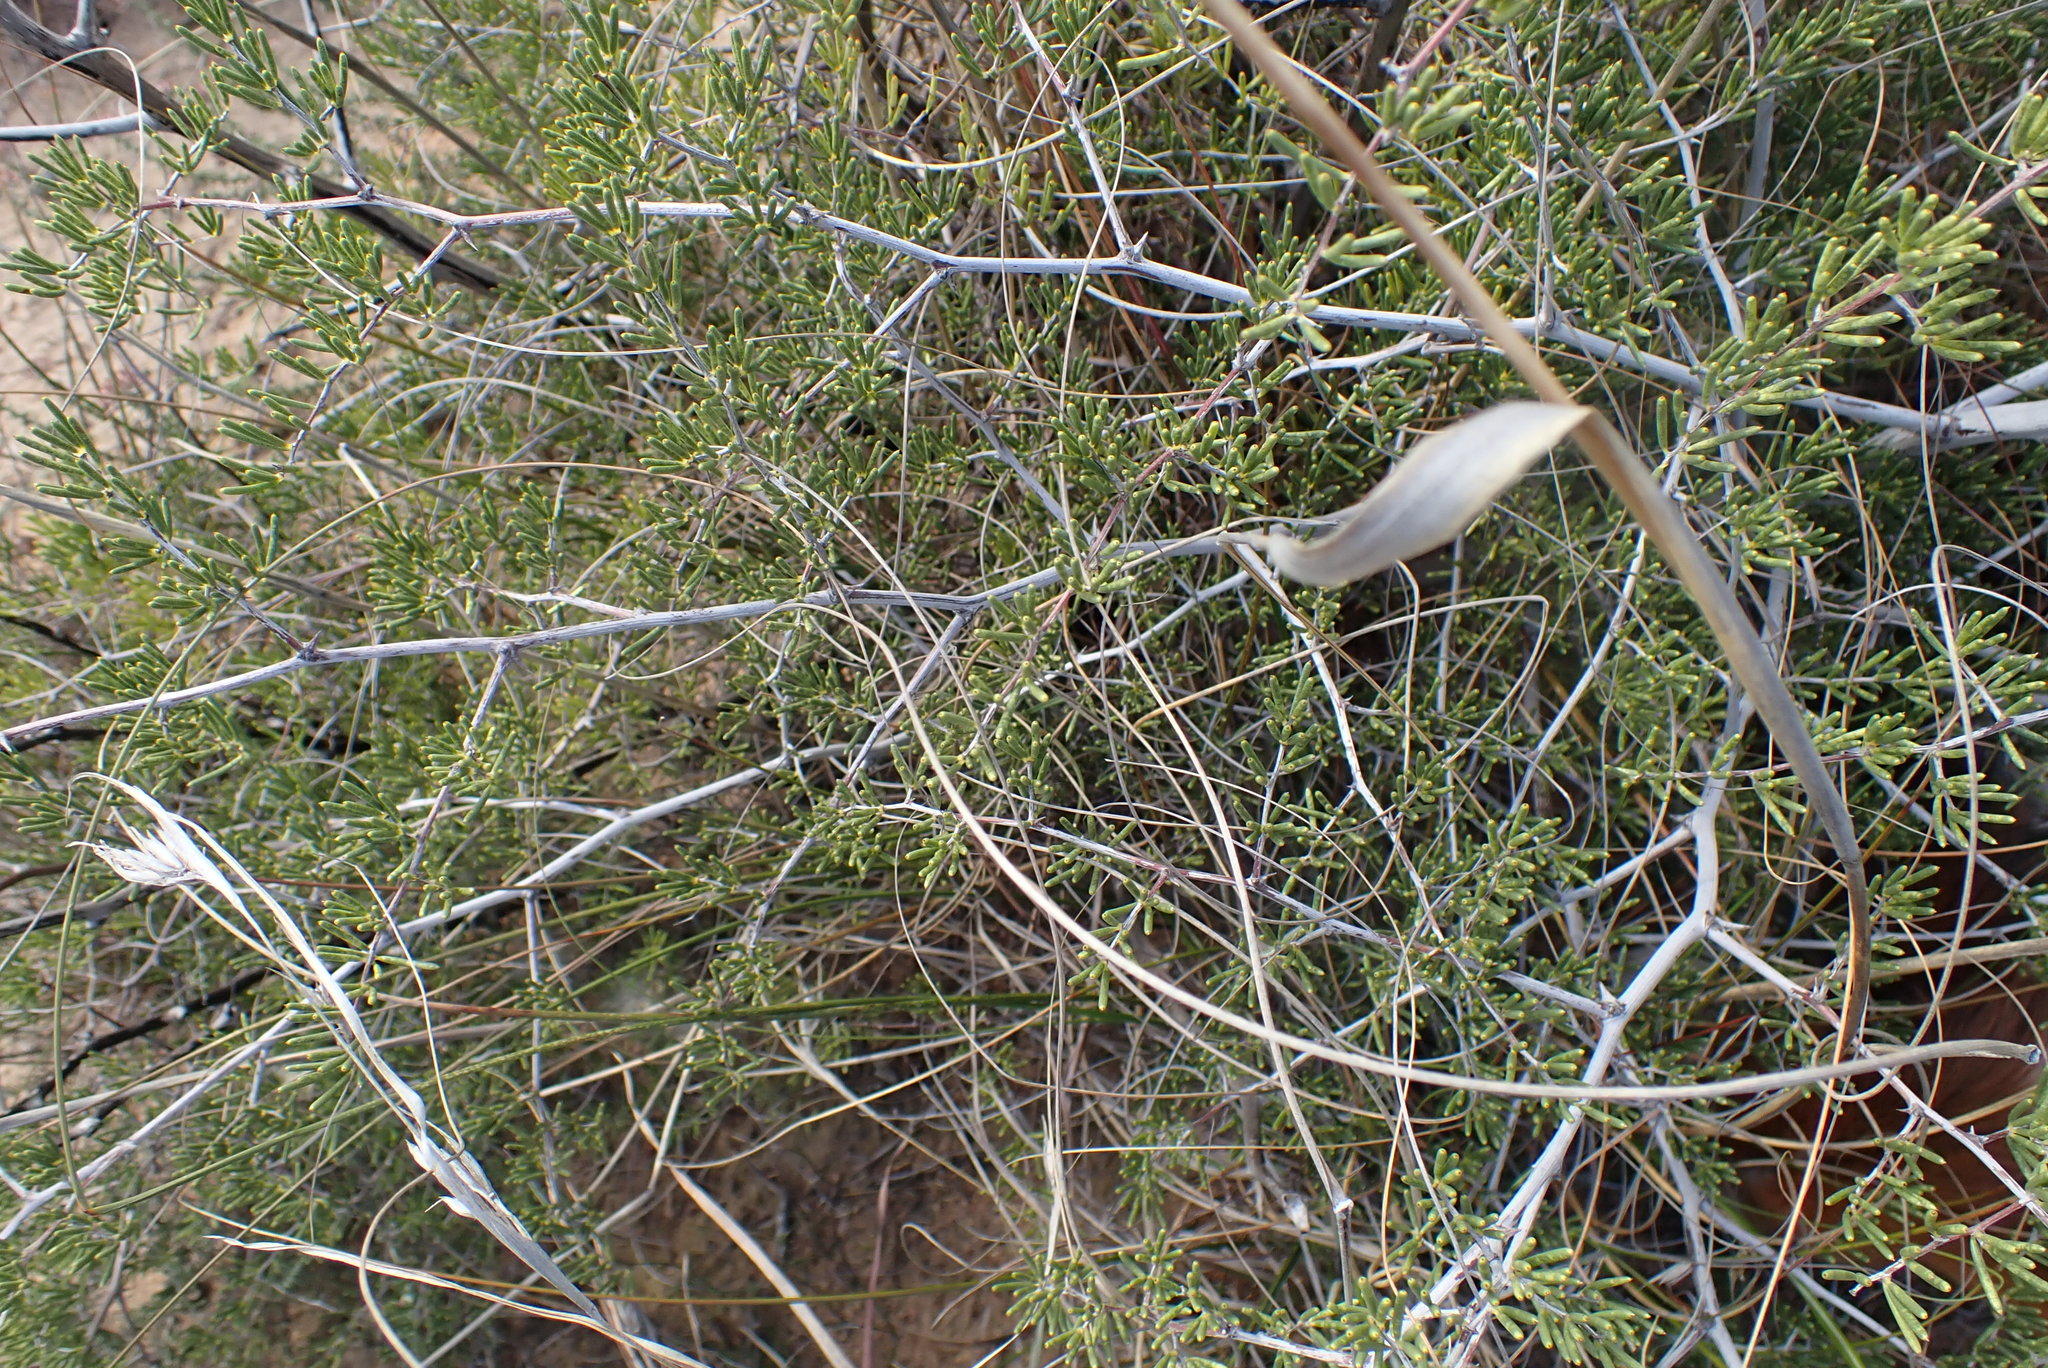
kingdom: Plantae
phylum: Tracheophyta
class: Liliopsida
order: Asparagales
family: Asparagaceae
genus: Asparagus
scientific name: Asparagus lignosus
